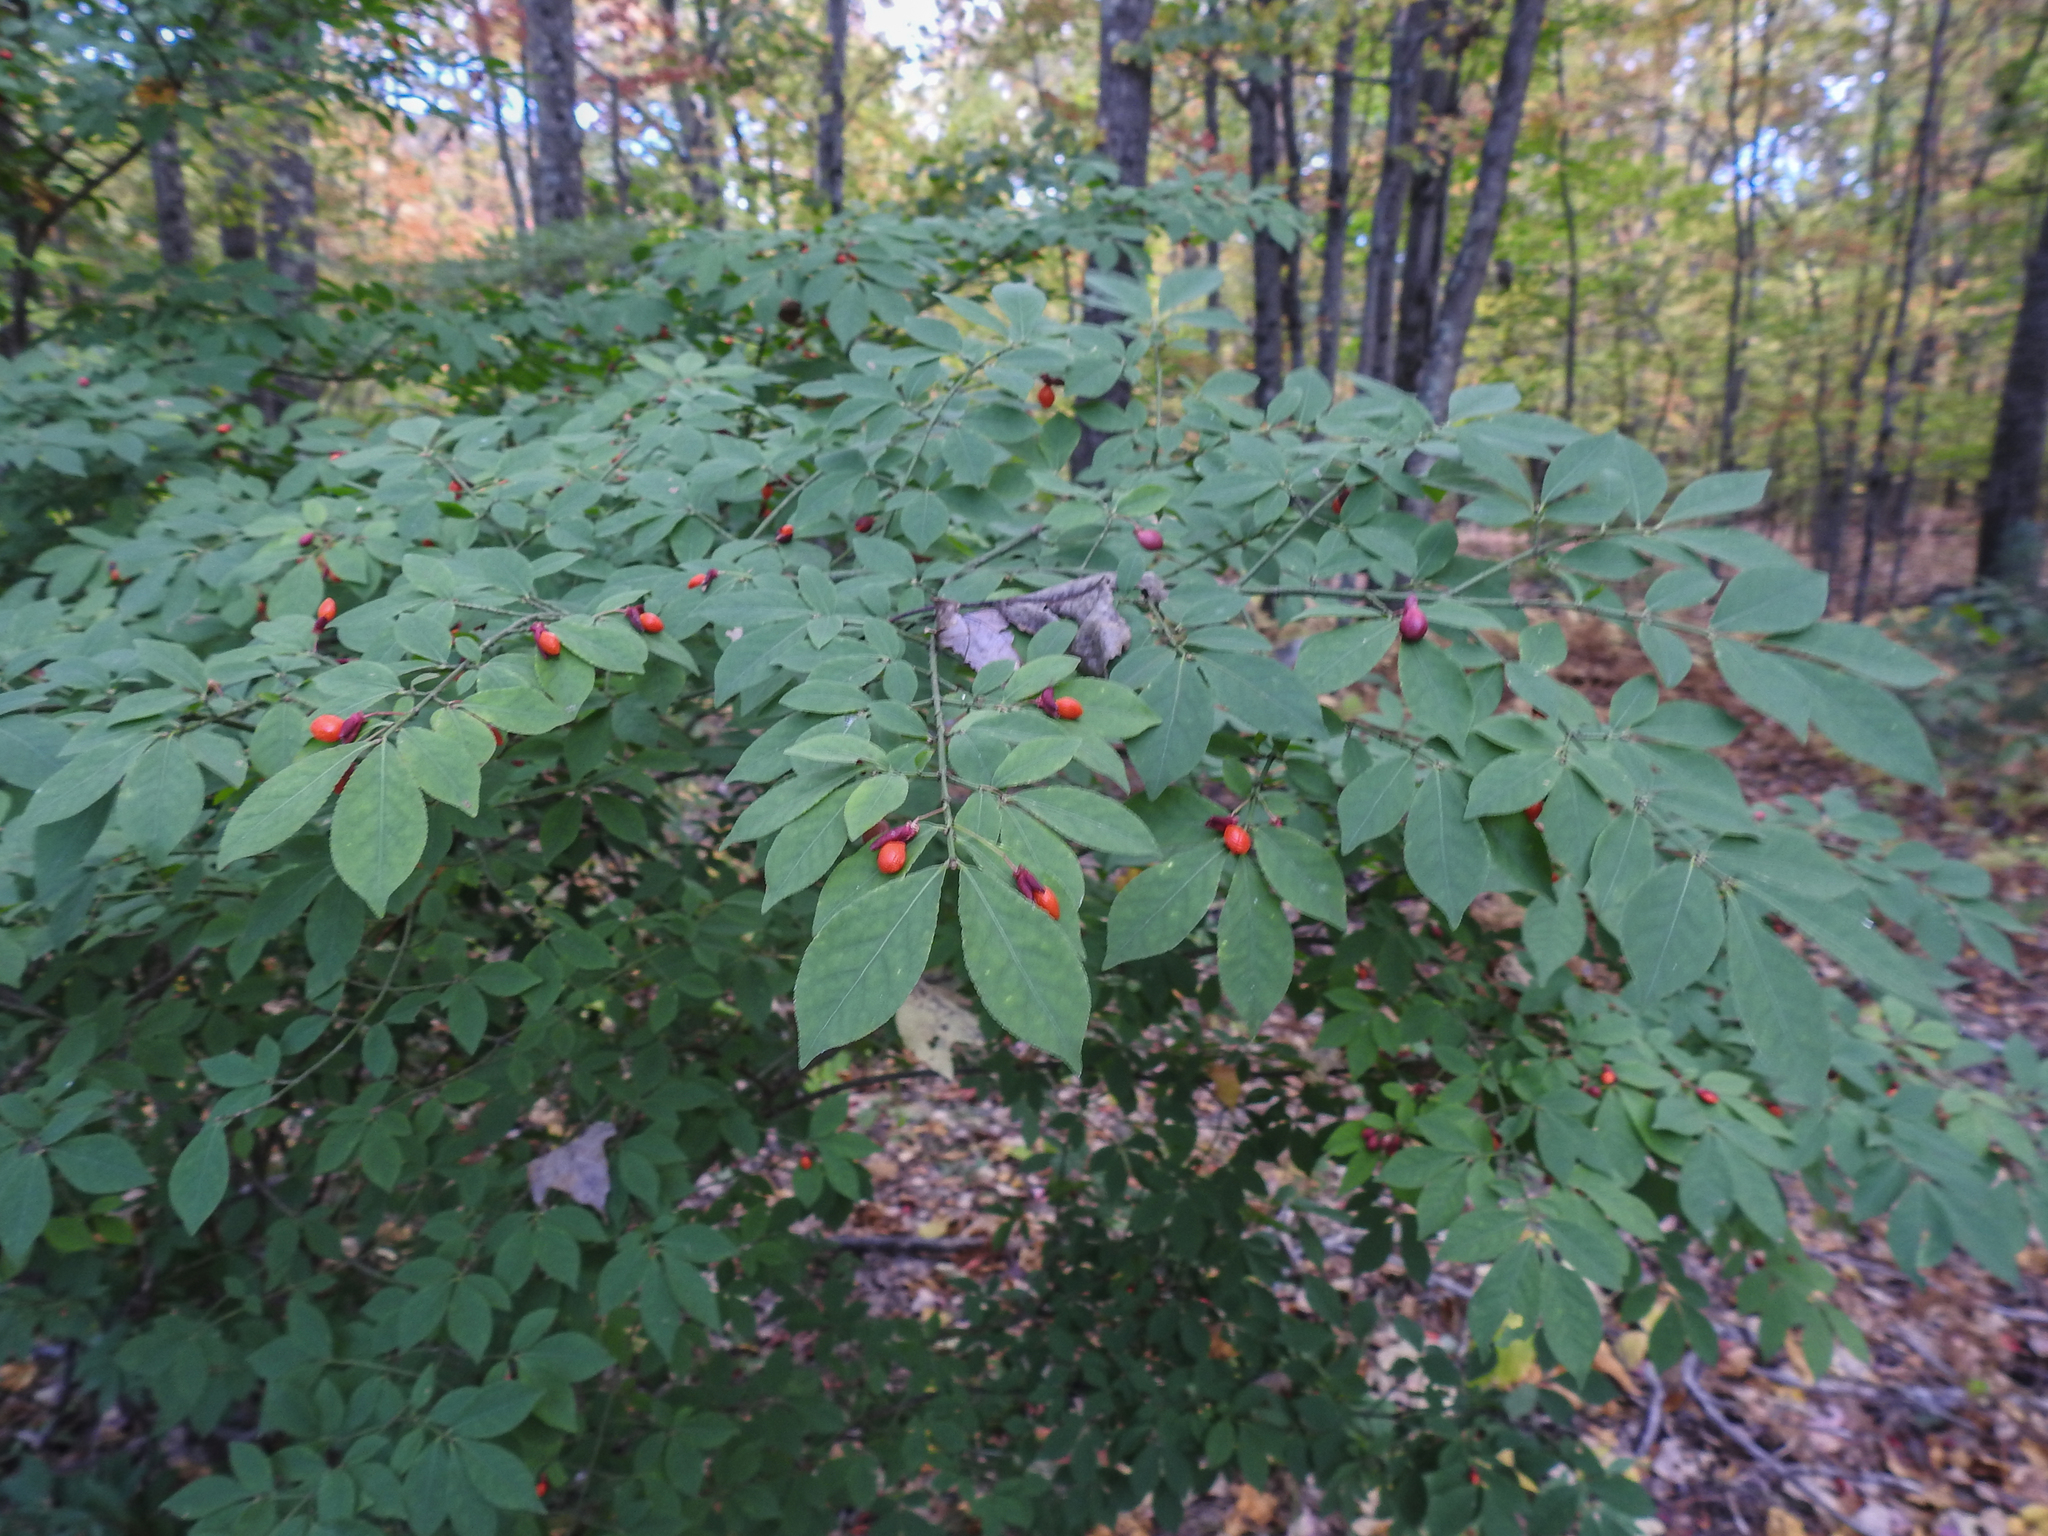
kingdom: Plantae
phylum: Tracheophyta
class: Magnoliopsida
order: Celastrales
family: Celastraceae
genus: Euonymus
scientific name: Euonymus alatus
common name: Winged euonymus
